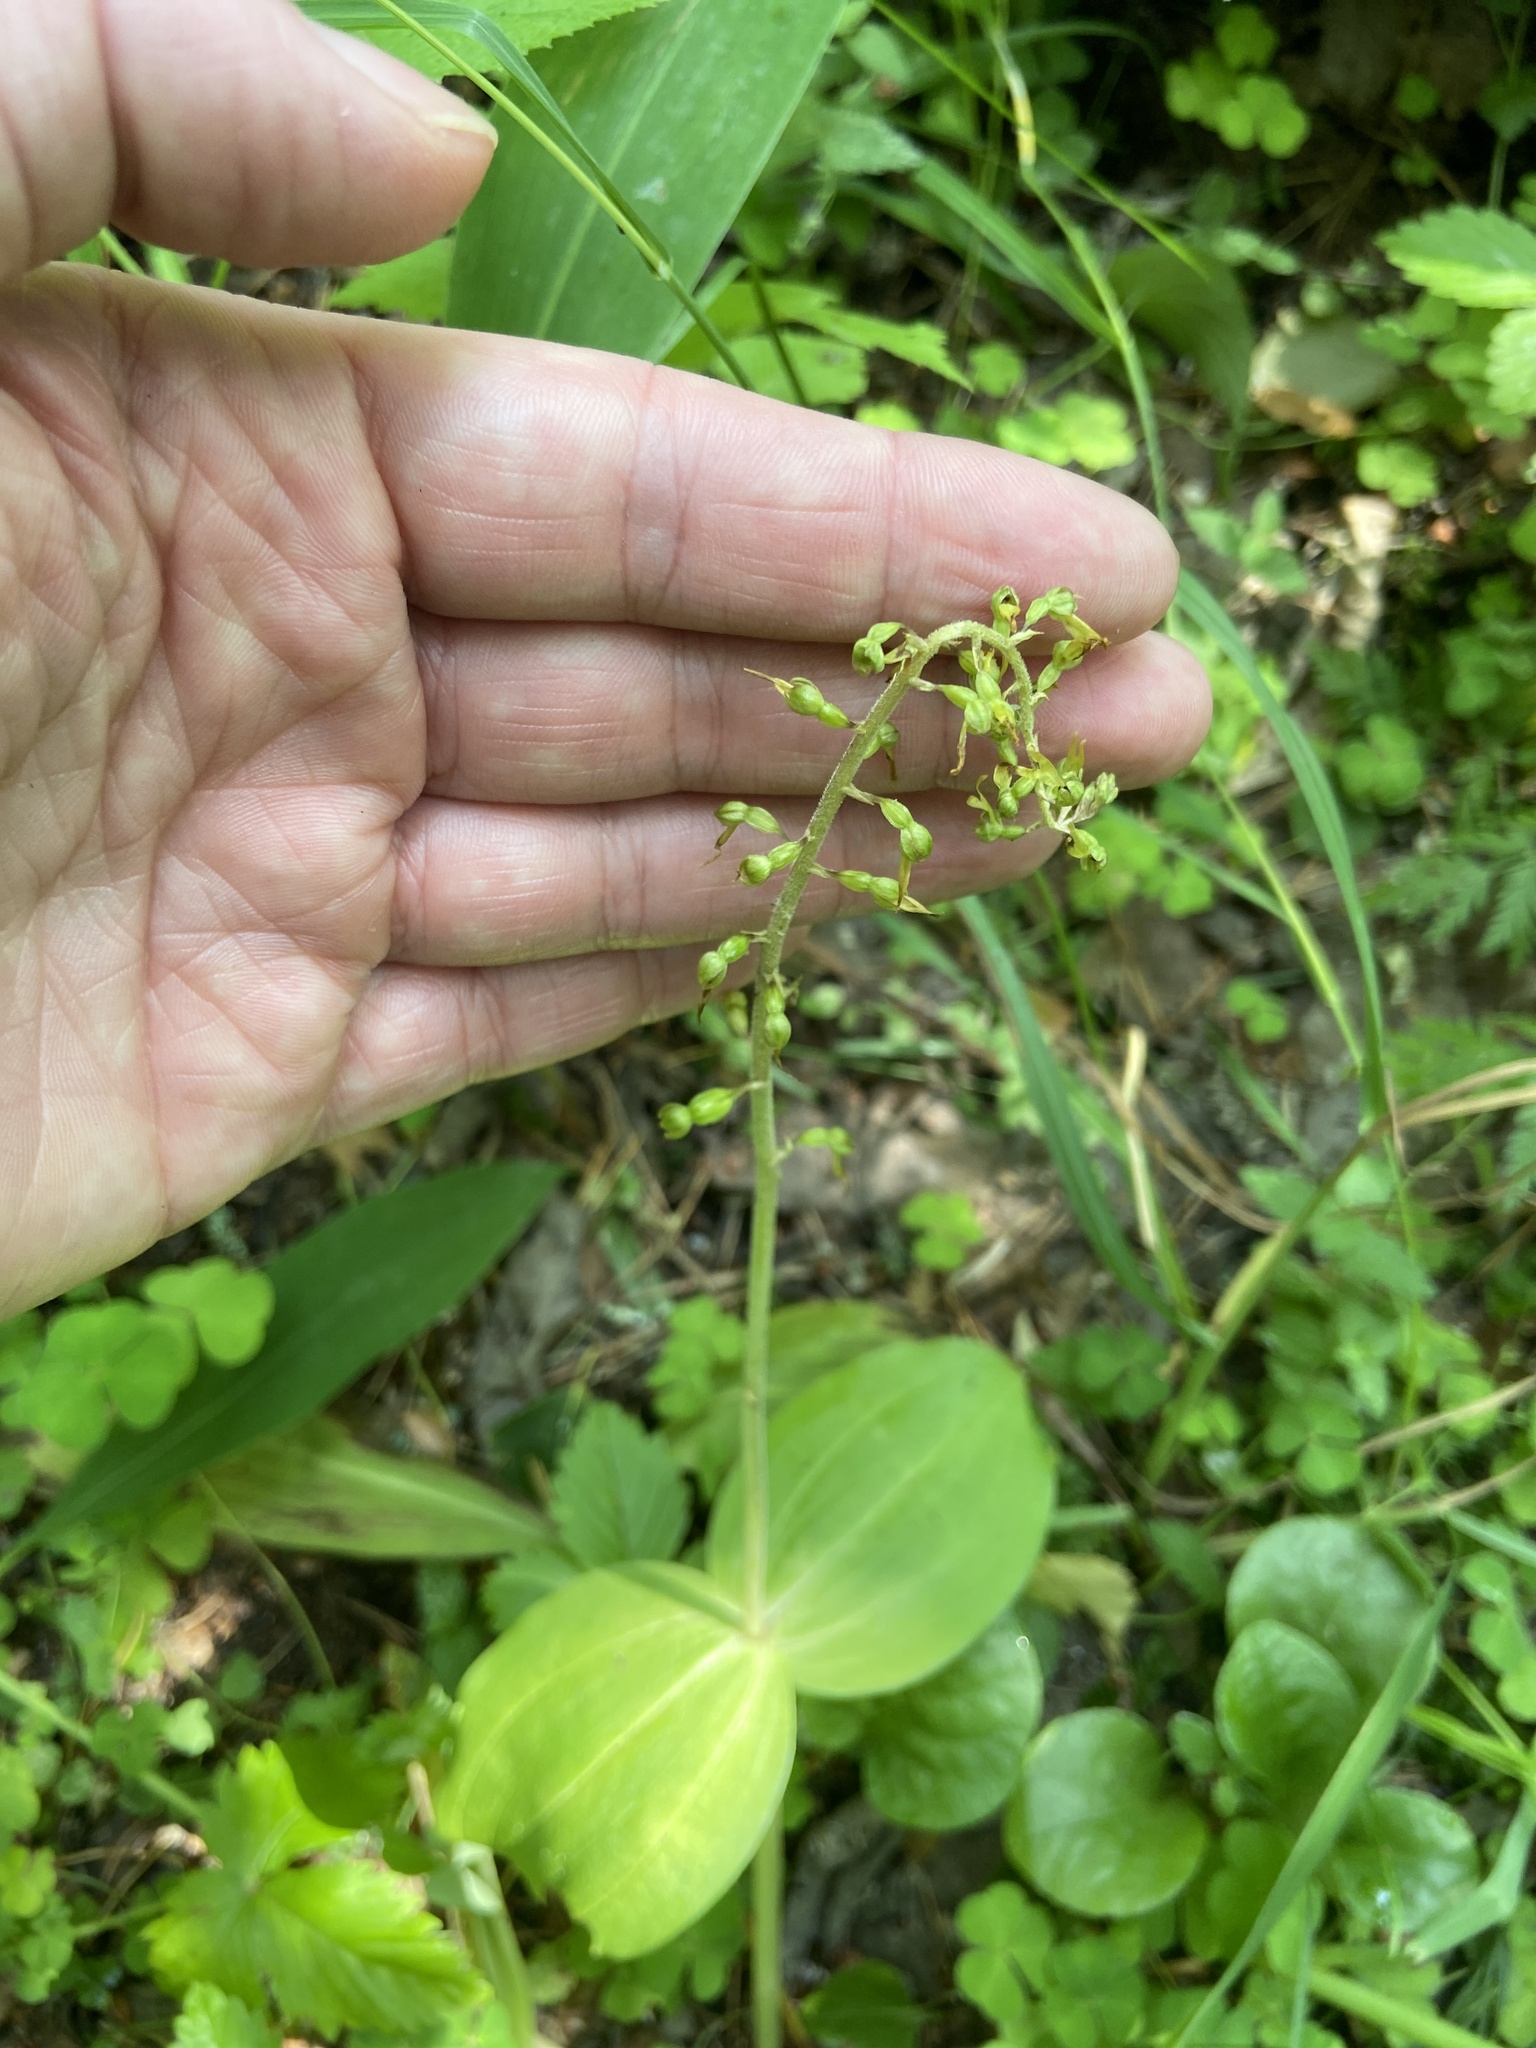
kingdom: Plantae
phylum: Tracheophyta
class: Liliopsida
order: Asparagales
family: Orchidaceae
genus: Neottia
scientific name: Neottia ovata
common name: Common twayblade
